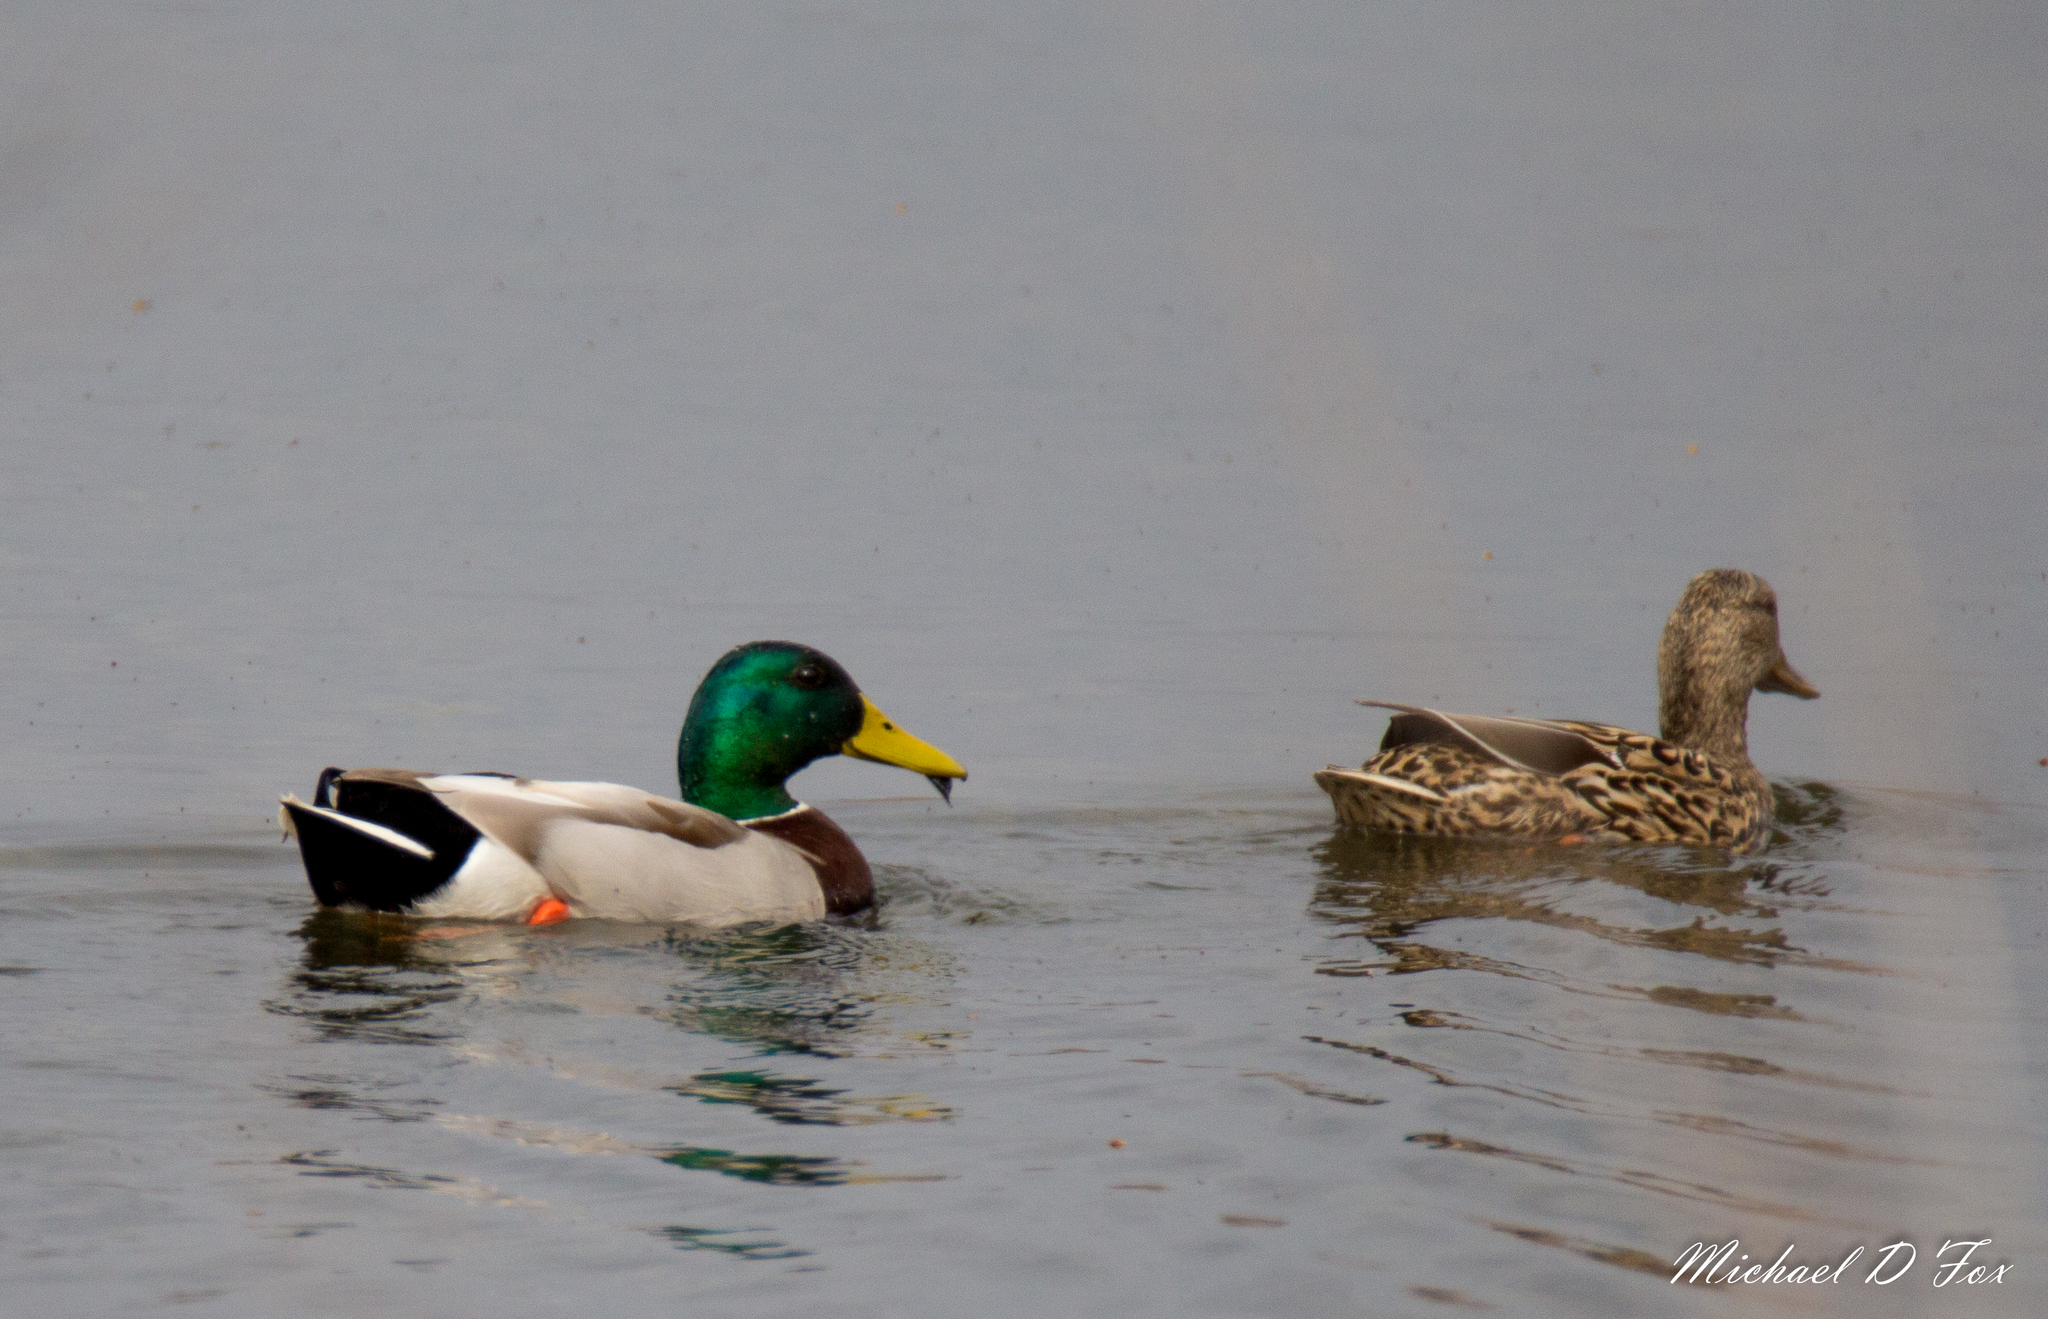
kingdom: Animalia
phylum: Chordata
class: Aves
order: Anseriformes
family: Anatidae
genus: Anas
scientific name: Anas platyrhynchos
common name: Mallard
